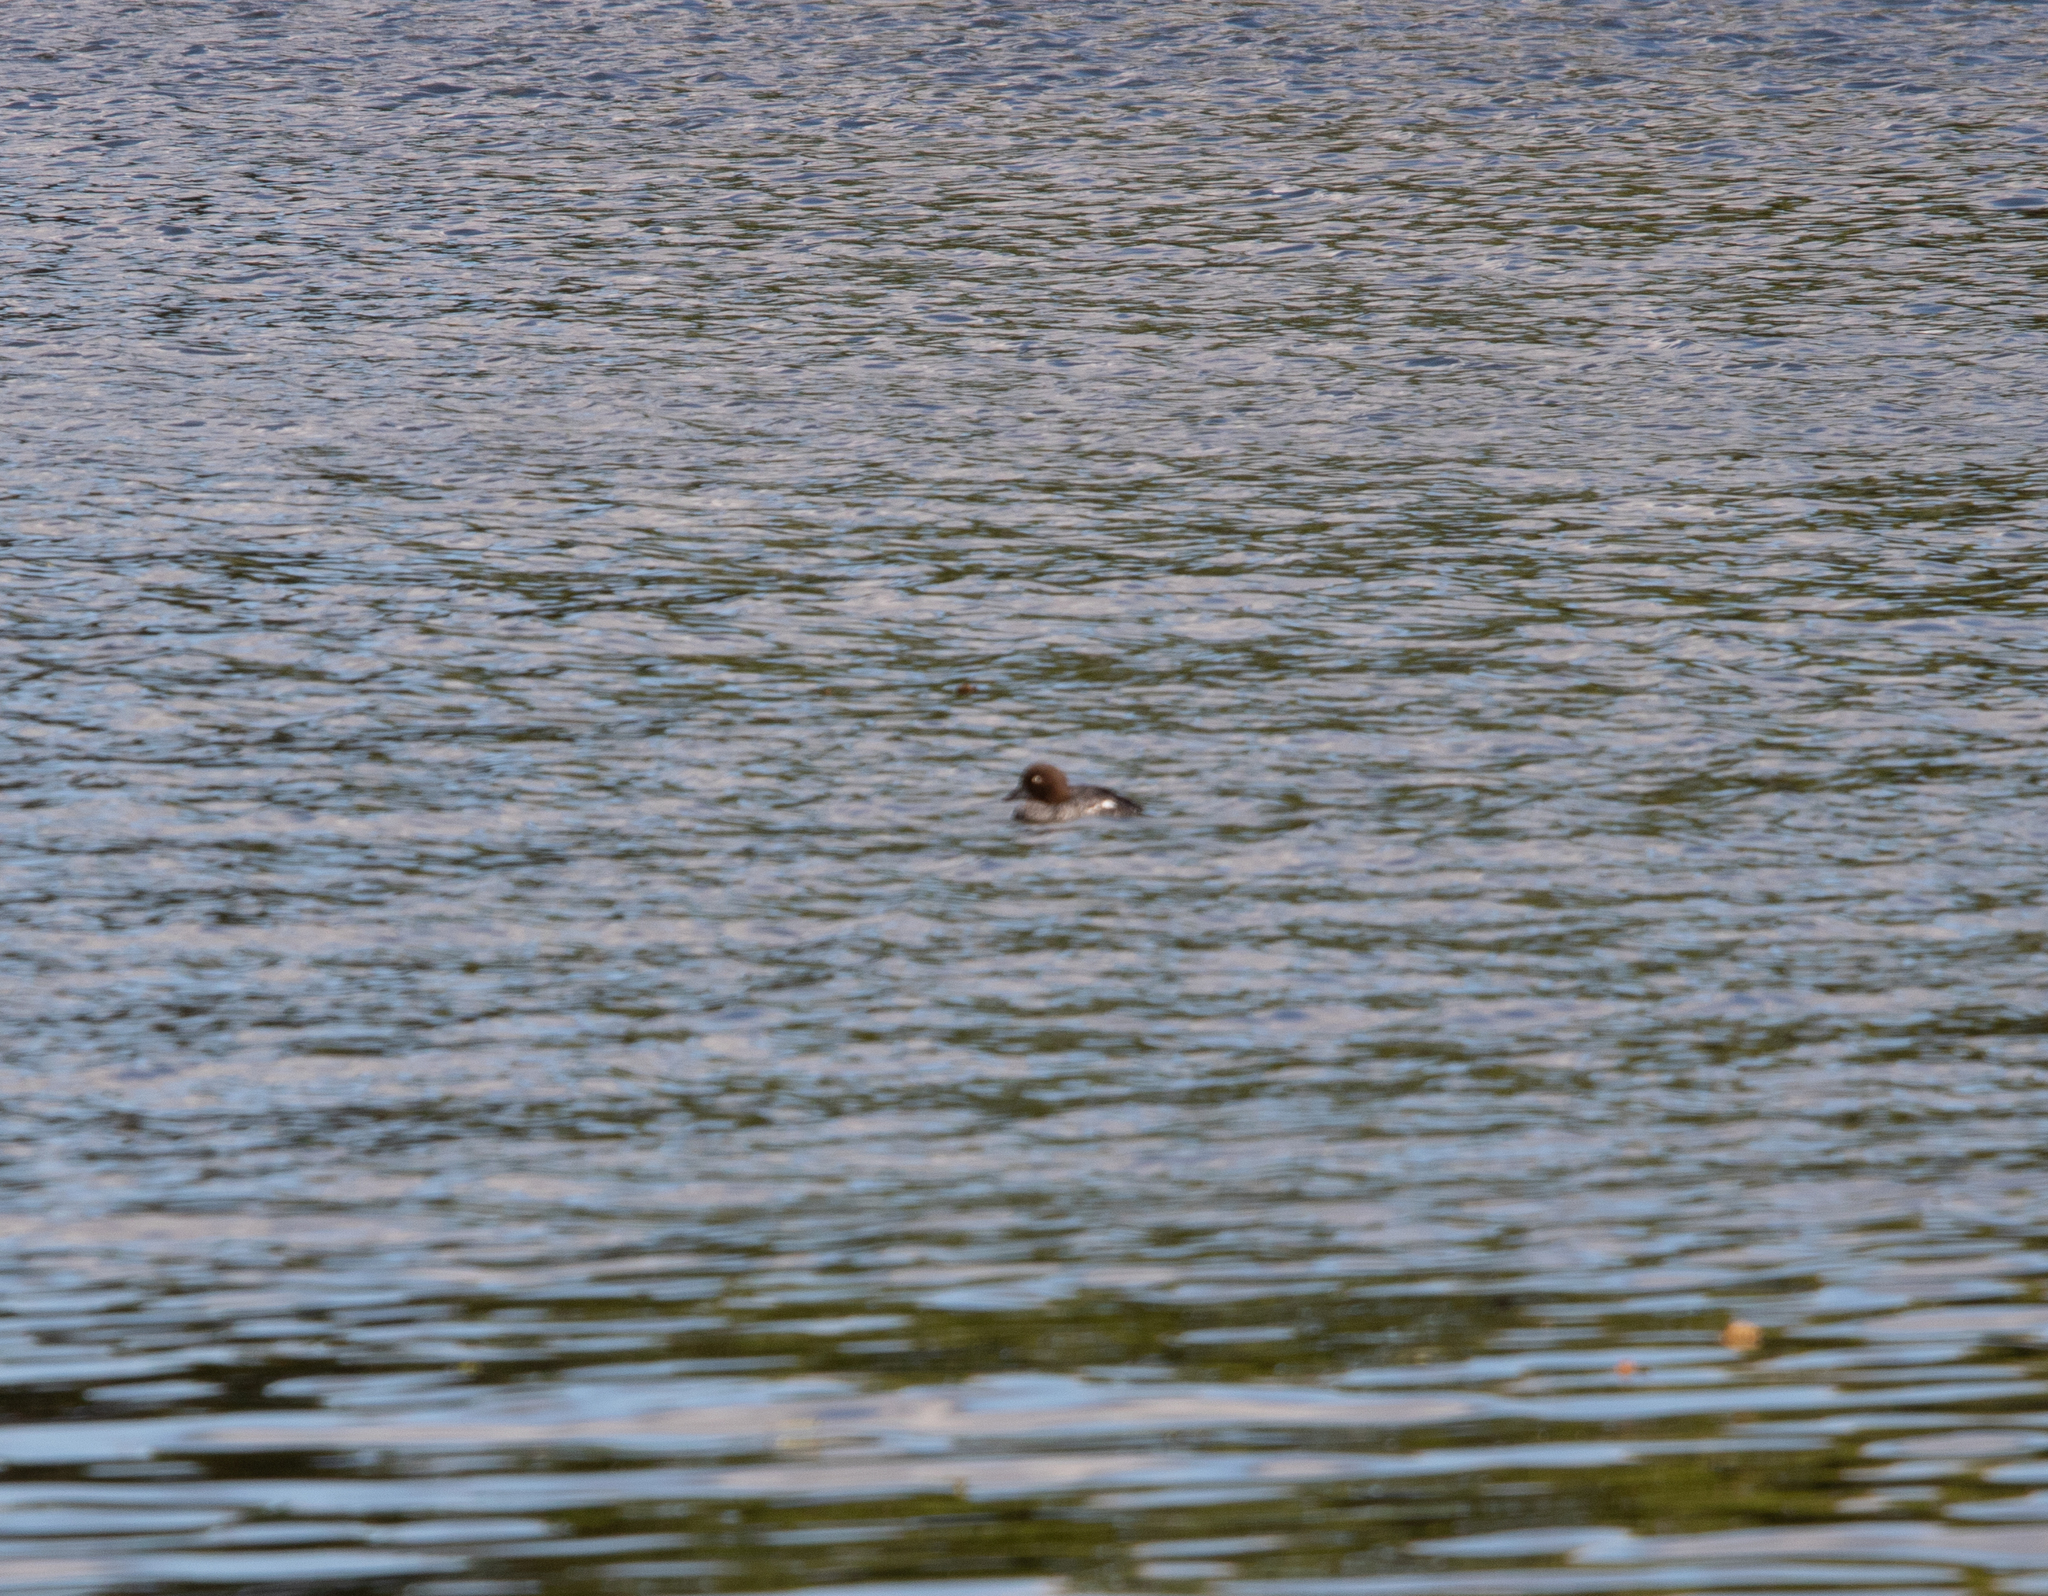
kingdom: Animalia
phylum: Chordata
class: Aves
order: Anseriformes
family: Anatidae
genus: Bucephala
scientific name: Bucephala clangula
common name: Common goldeneye
